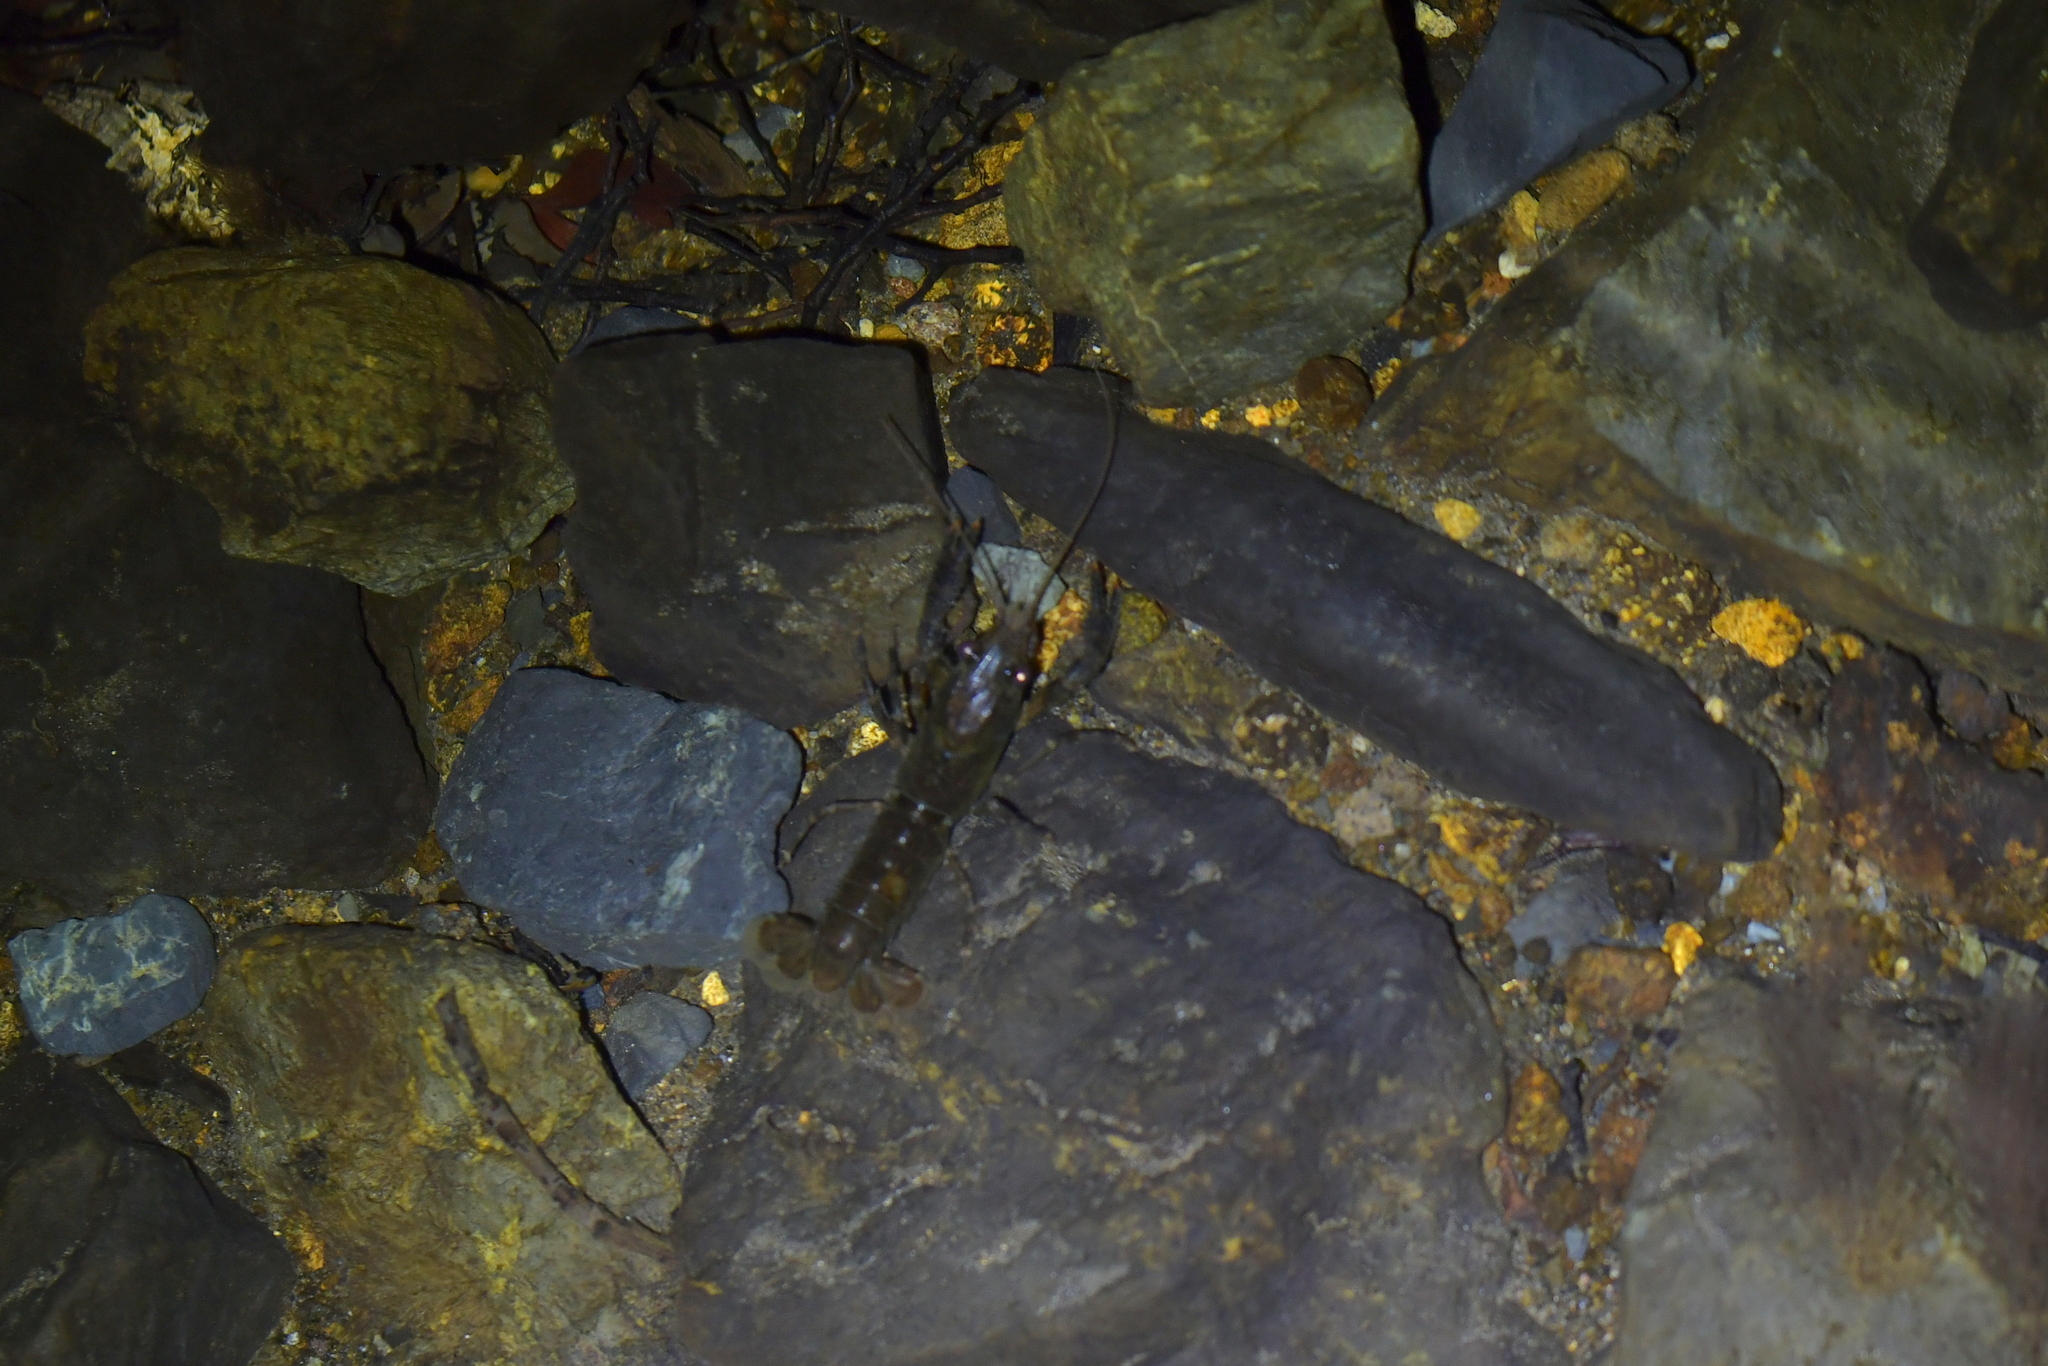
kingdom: Animalia
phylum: Arthropoda
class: Malacostraca
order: Decapoda
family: Parastacidae
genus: Paranephrops
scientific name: Paranephrops planifrons
